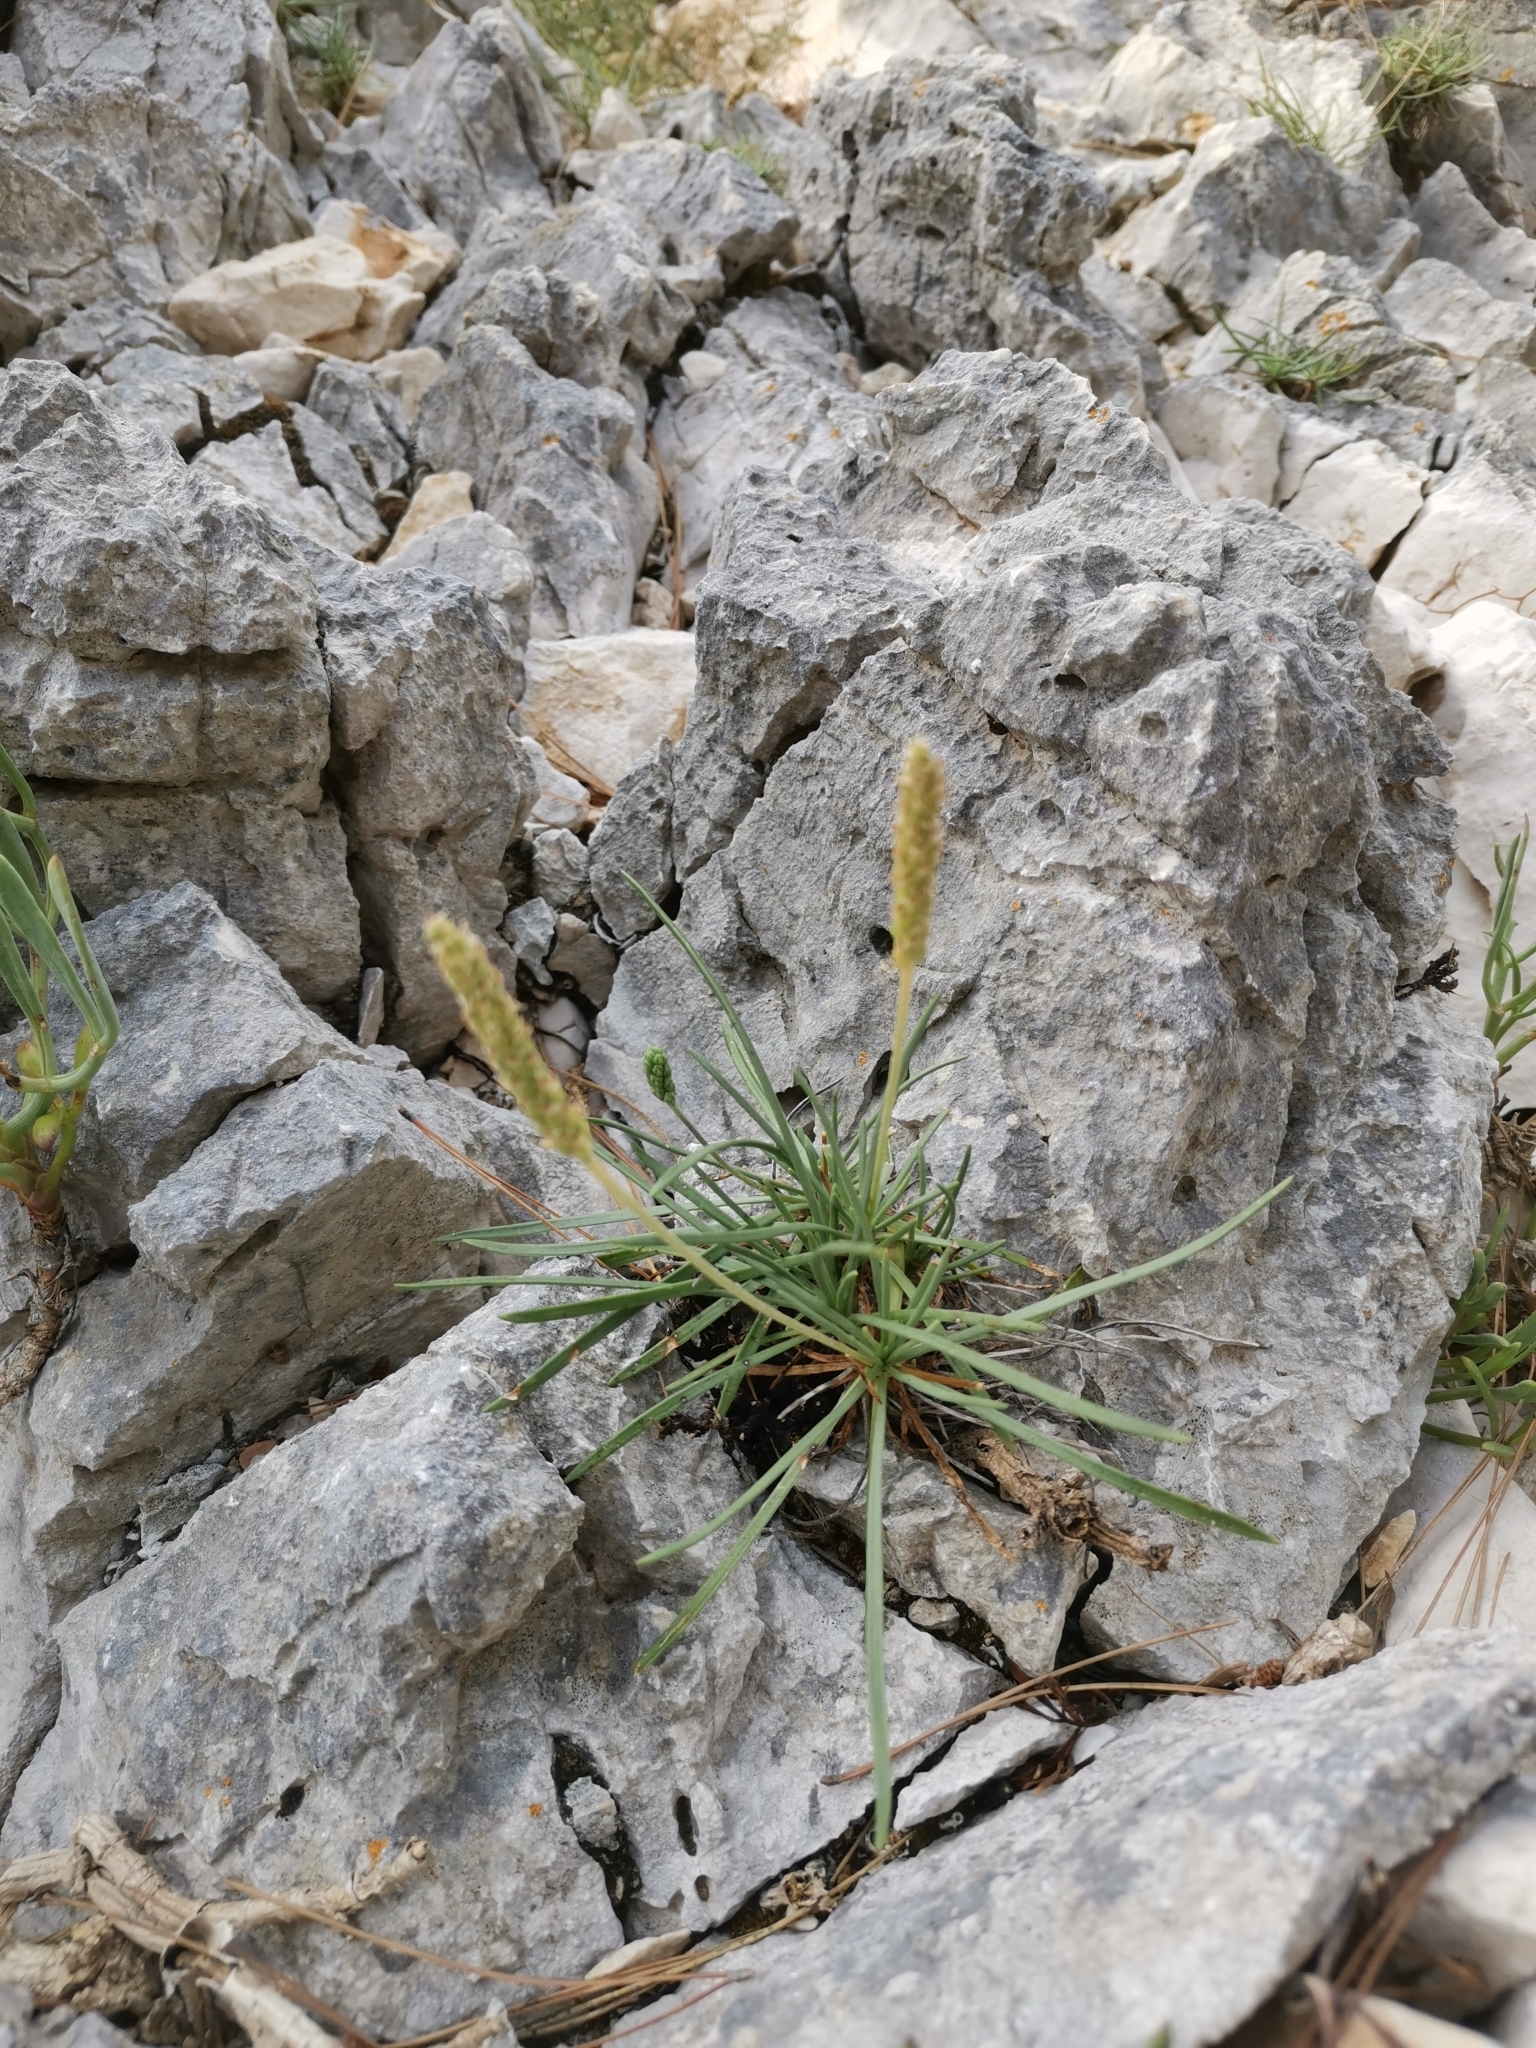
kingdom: Plantae
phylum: Tracheophyta
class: Magnoliopsida
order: Lamiales
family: Plantaginaceae
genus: Plantago
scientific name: Plantago maritima
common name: Sea plantain
